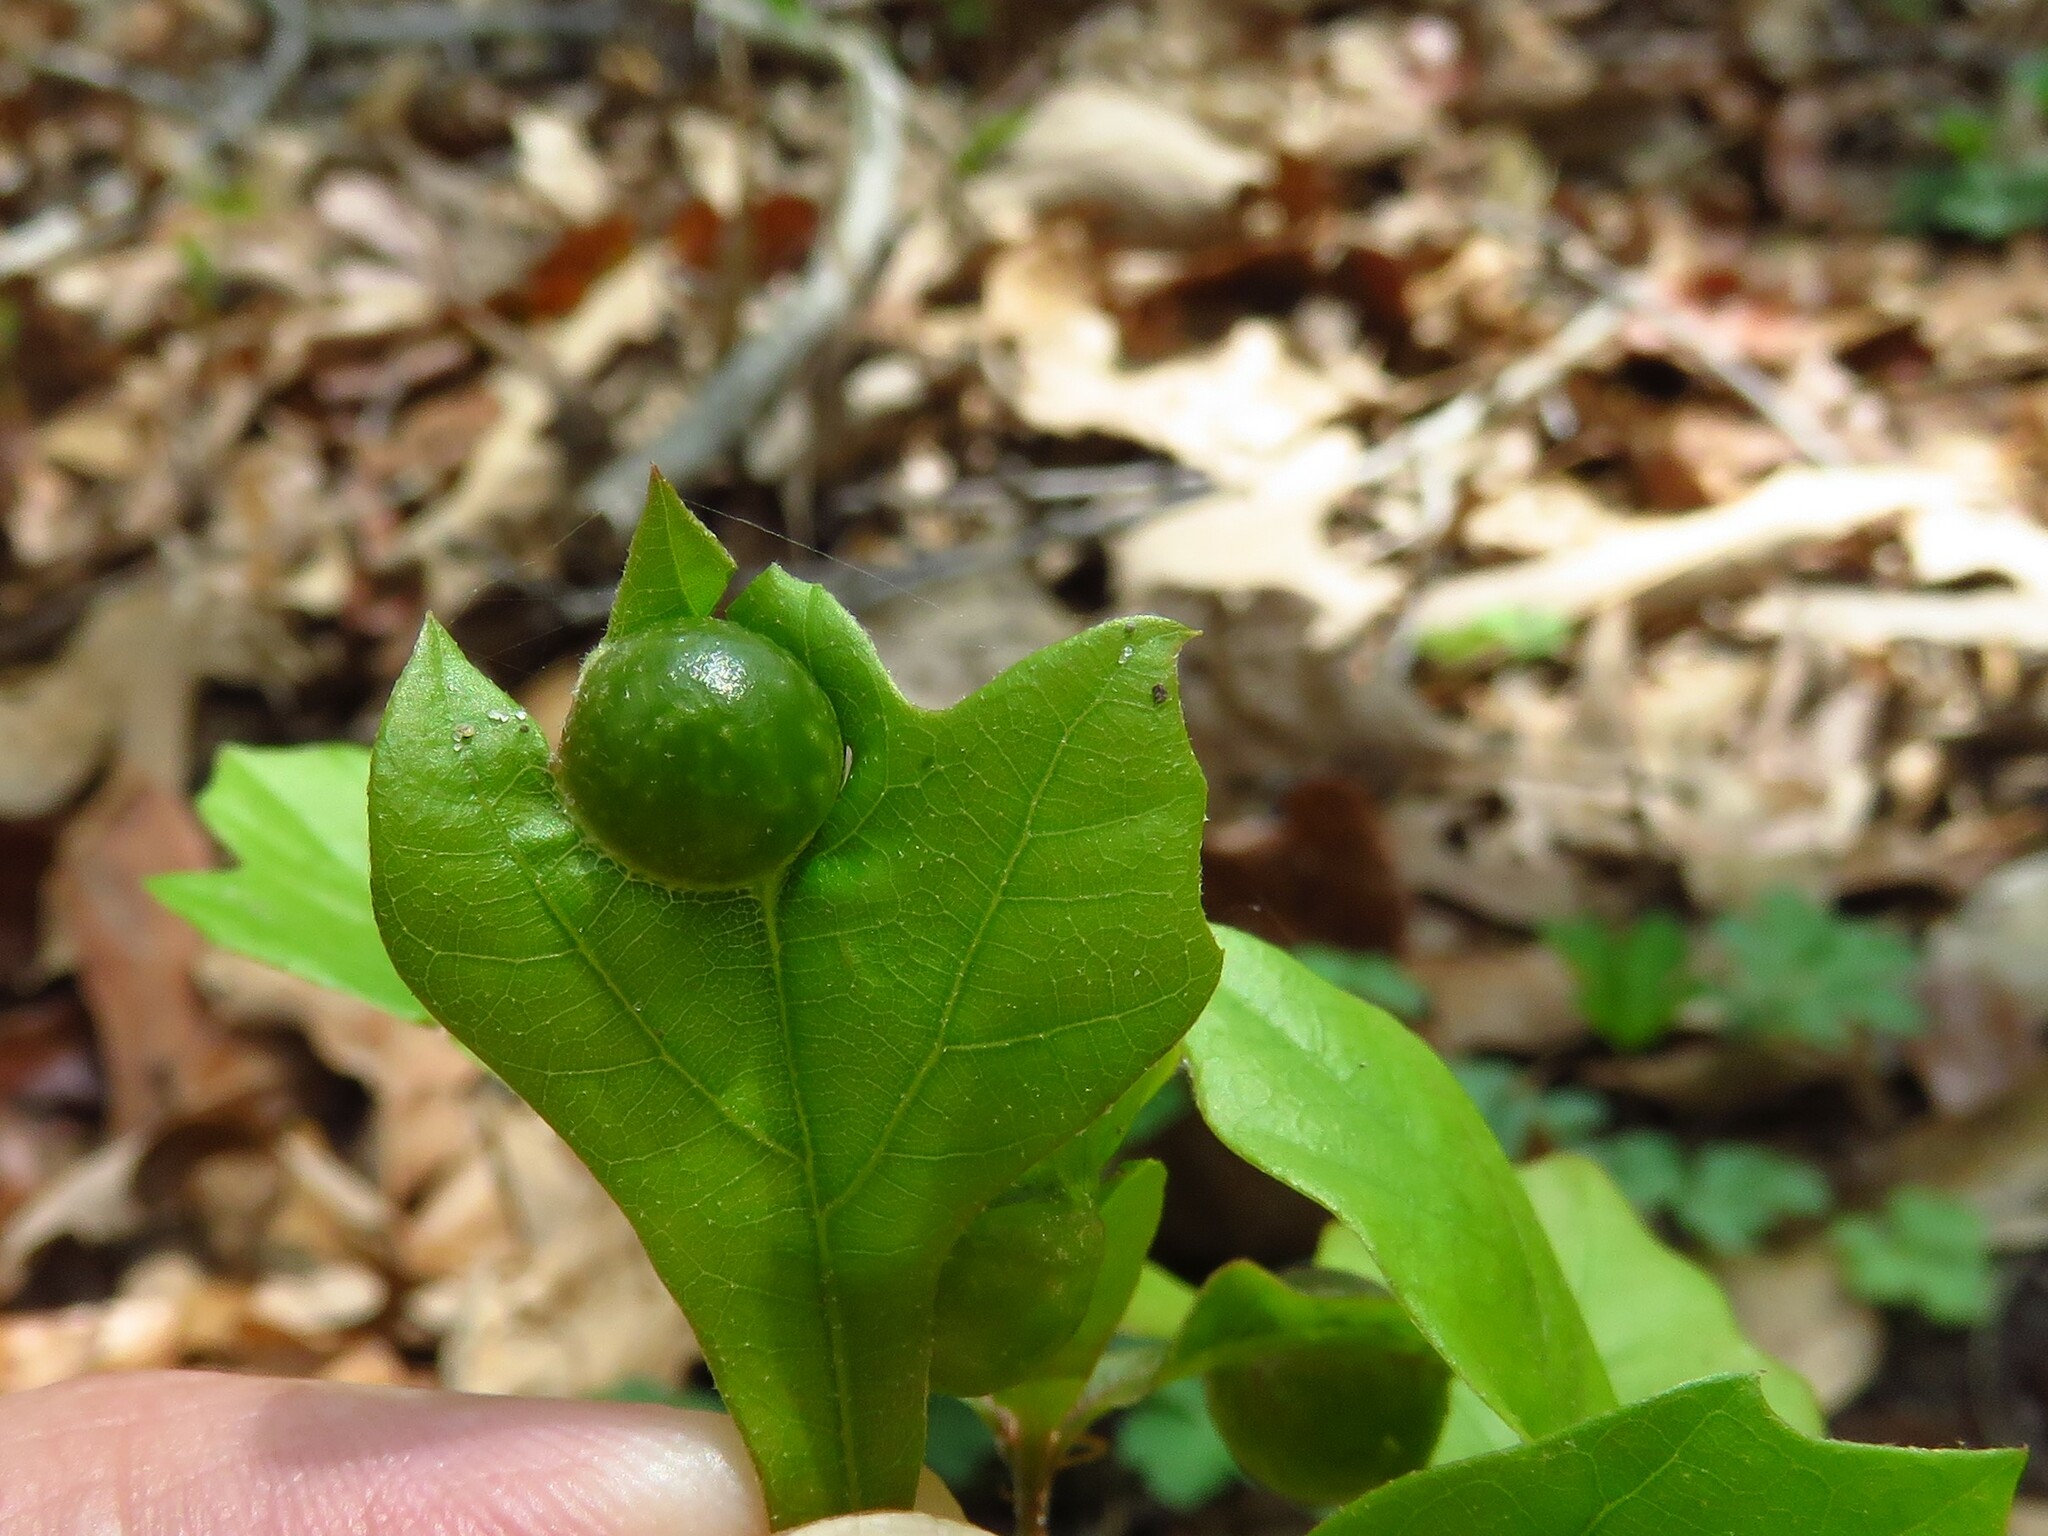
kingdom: Animalia
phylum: Arthropoda
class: Insecta
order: Hymenoptera
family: Cynipidae
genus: Dryocosmus
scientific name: Dryocosmus quercuspalustris
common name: Succulent oak gall wasp
